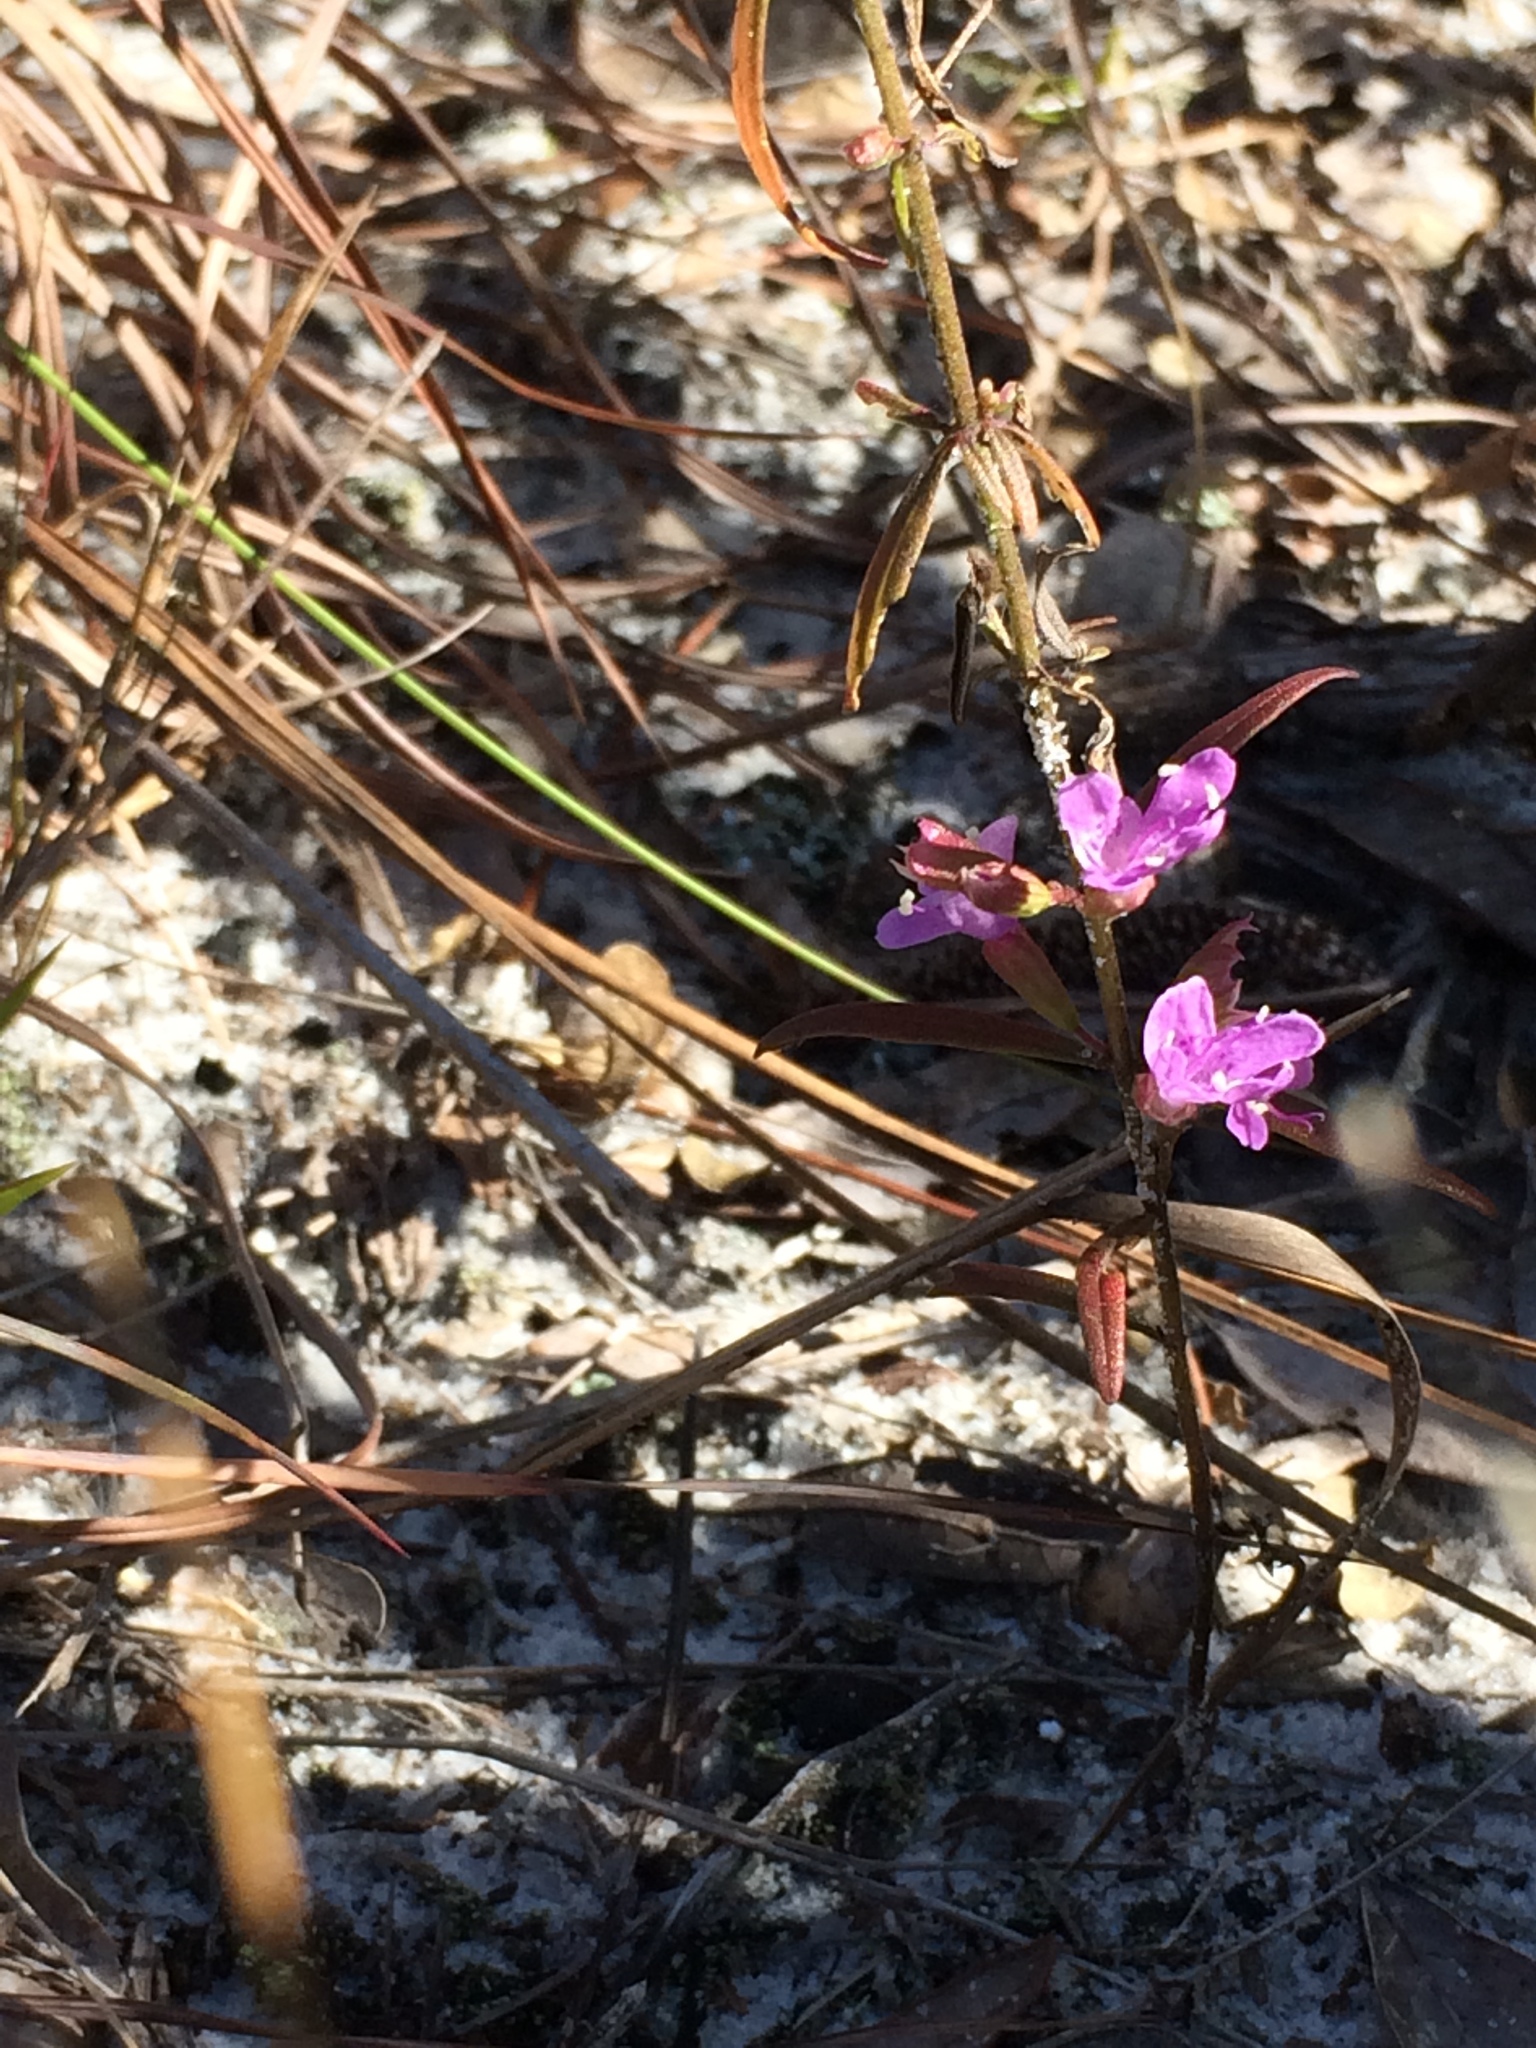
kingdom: Plantae
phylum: Tracheophyta
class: Magnoliopsida
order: Lamiales
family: Lamiaceae
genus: Dicerandra
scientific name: Dicerandra densiflora
